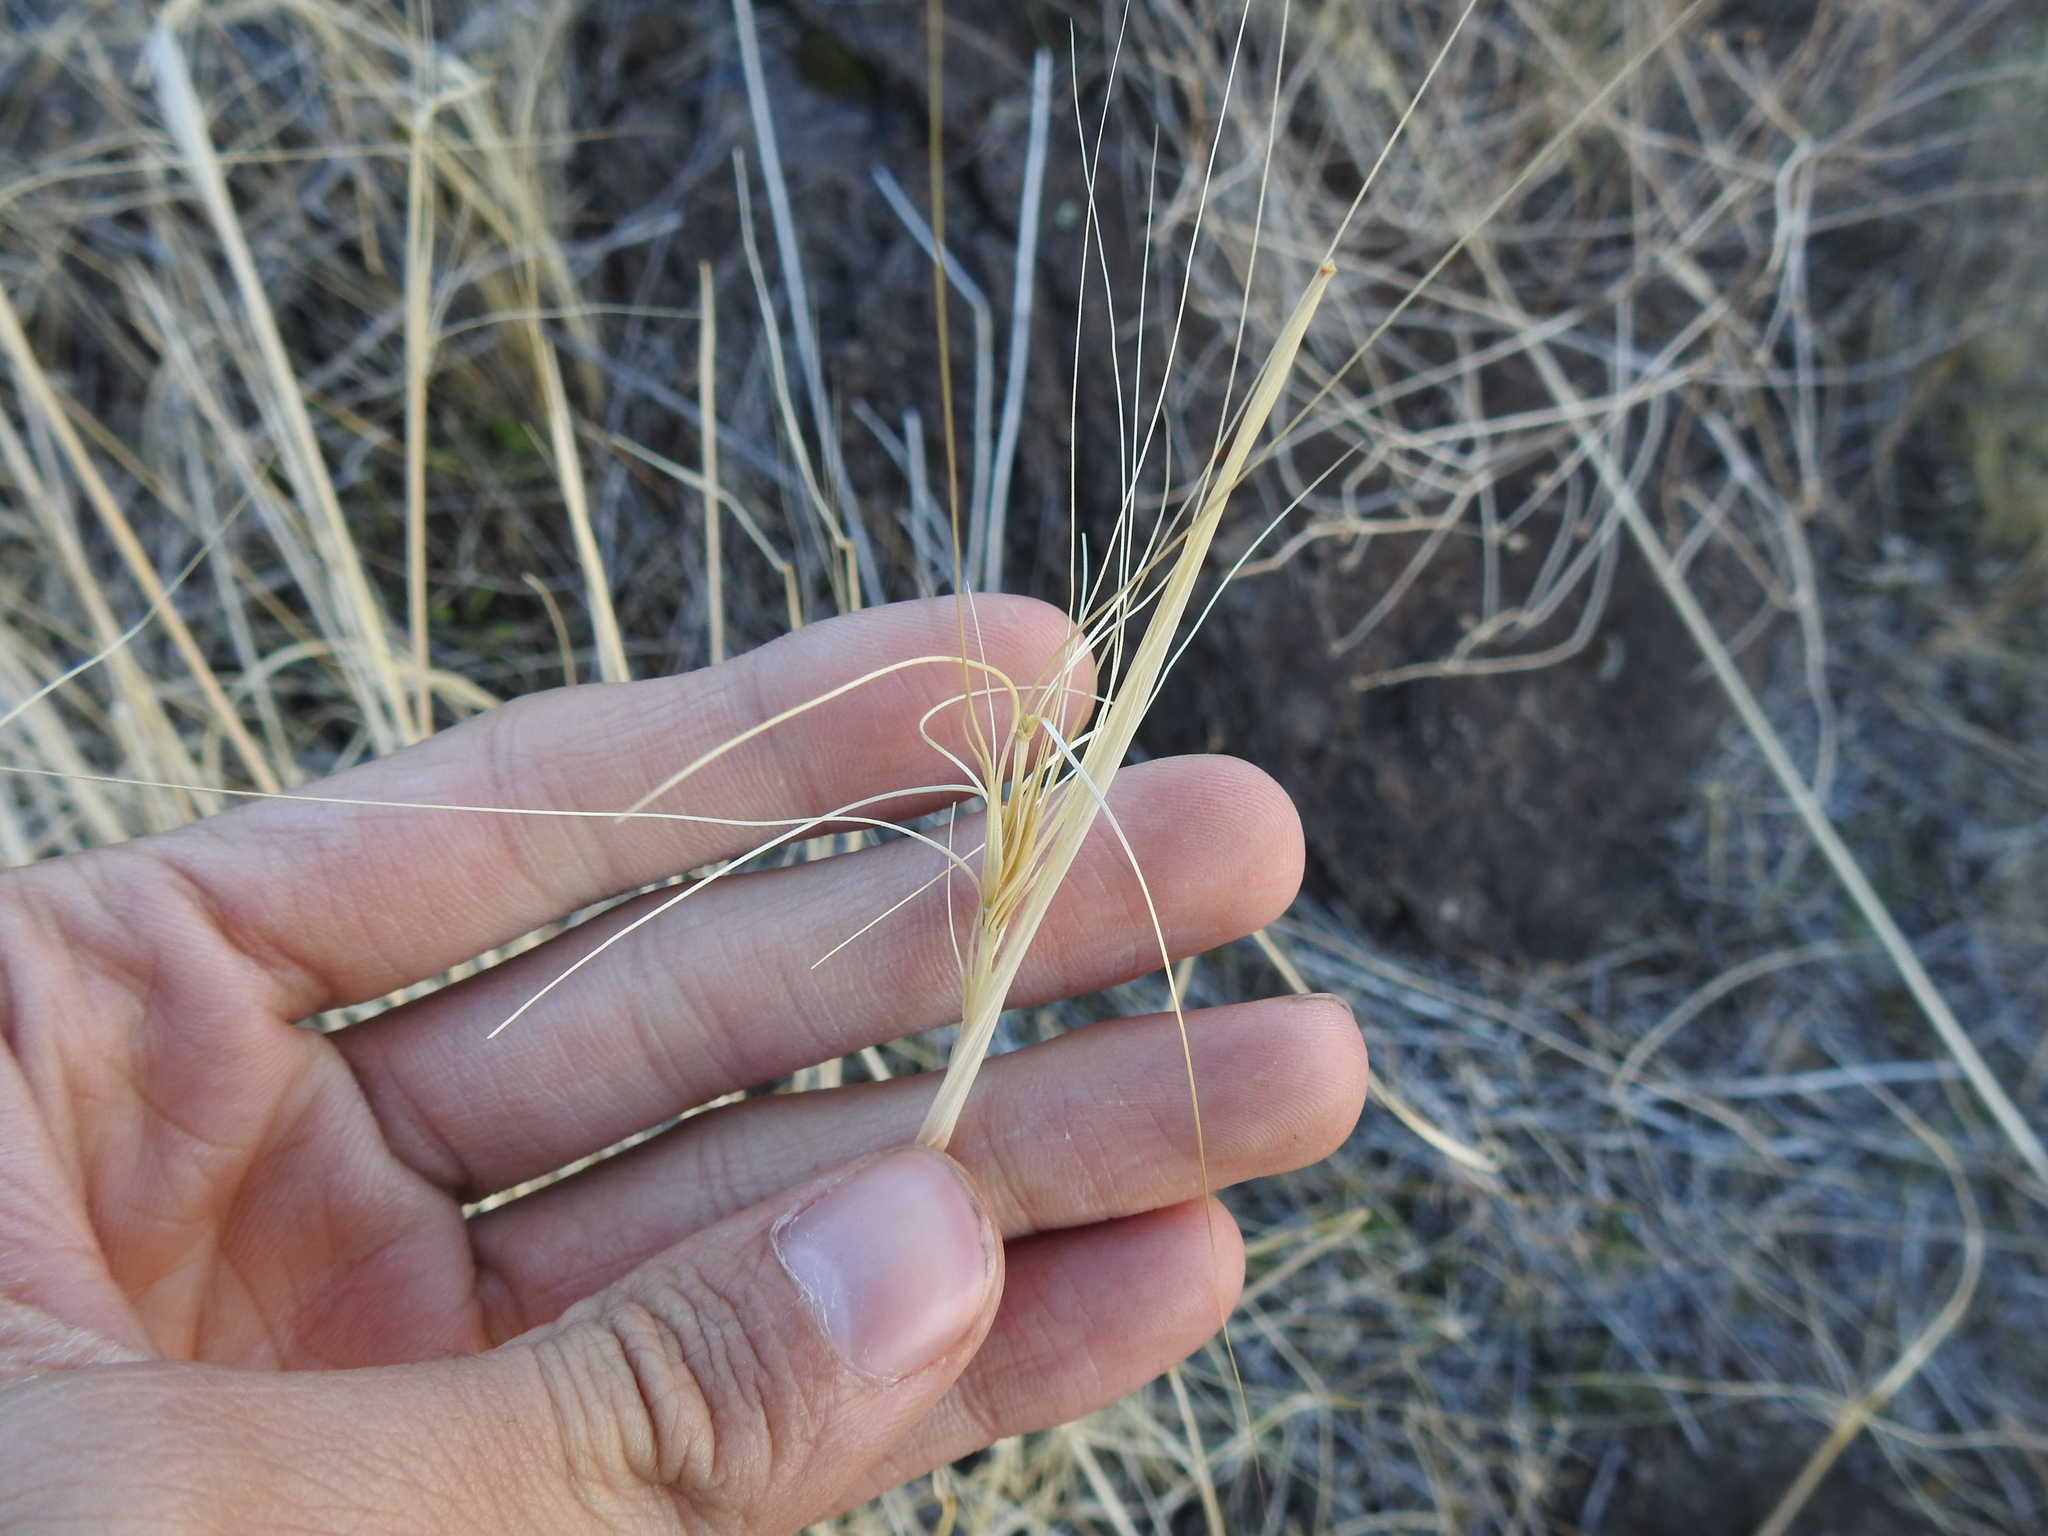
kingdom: Plantae
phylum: Tracheophyta
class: Liliopsida
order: Poales
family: Poaceae
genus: Elymus
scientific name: Elymus elymoides
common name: Bottlebrush squirreltail
